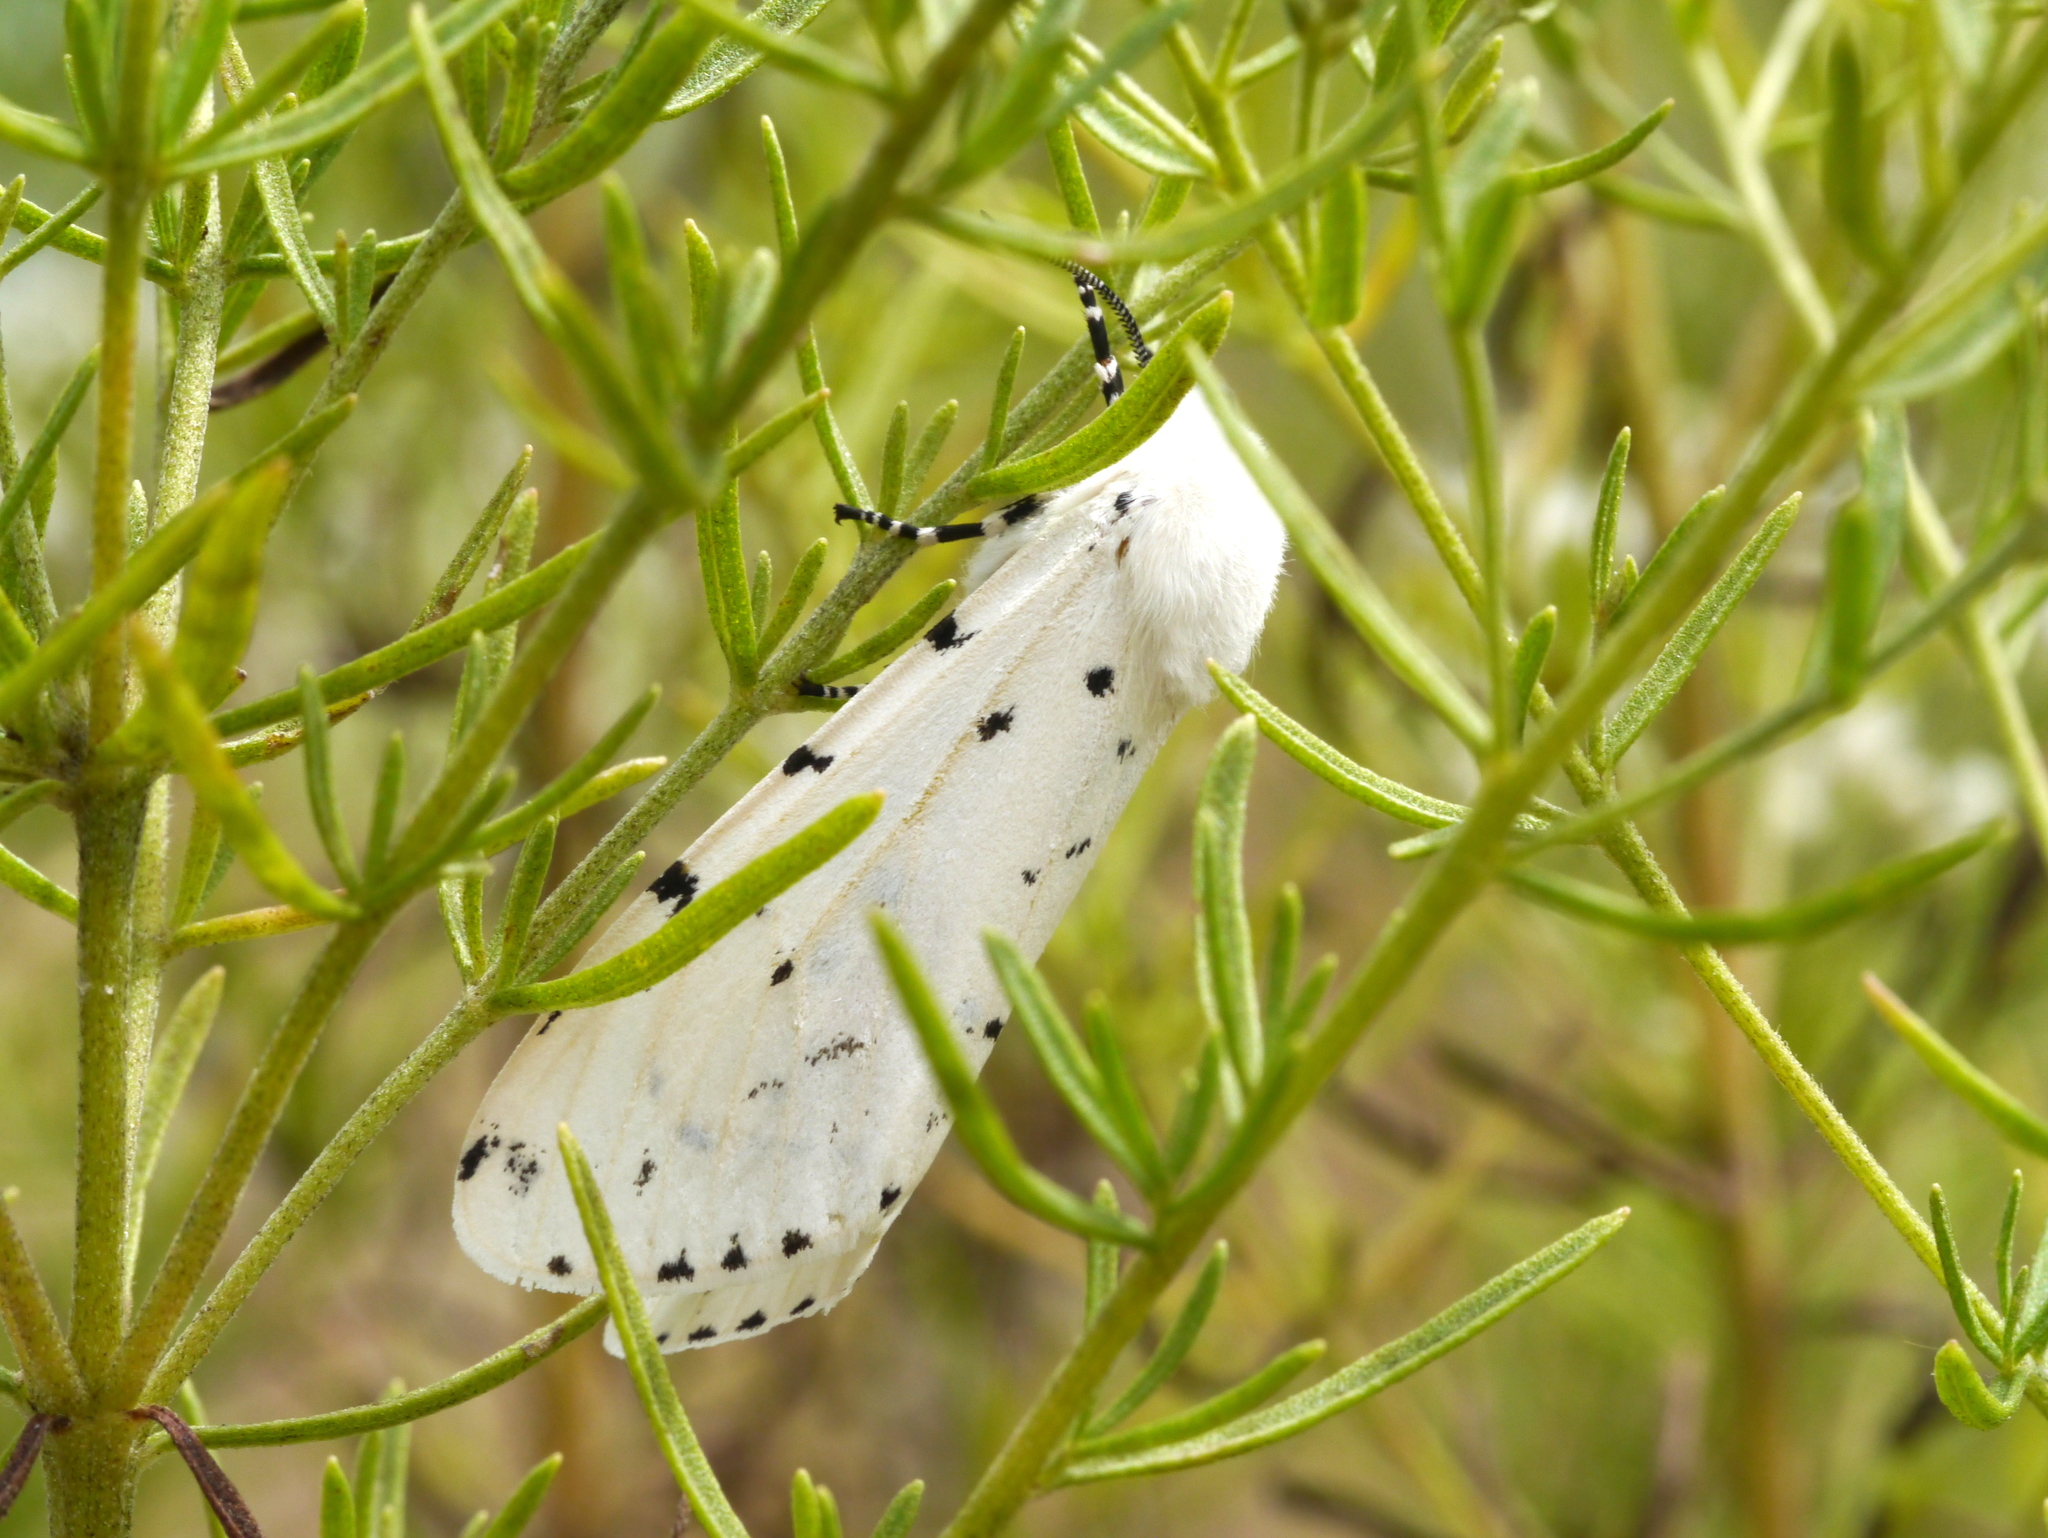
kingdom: Animalia
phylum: Arthropoda
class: Insecta
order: Lepidoptera
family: Erebidae
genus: Estigmene
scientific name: Estigmene acrea
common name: Salt marsh moth
